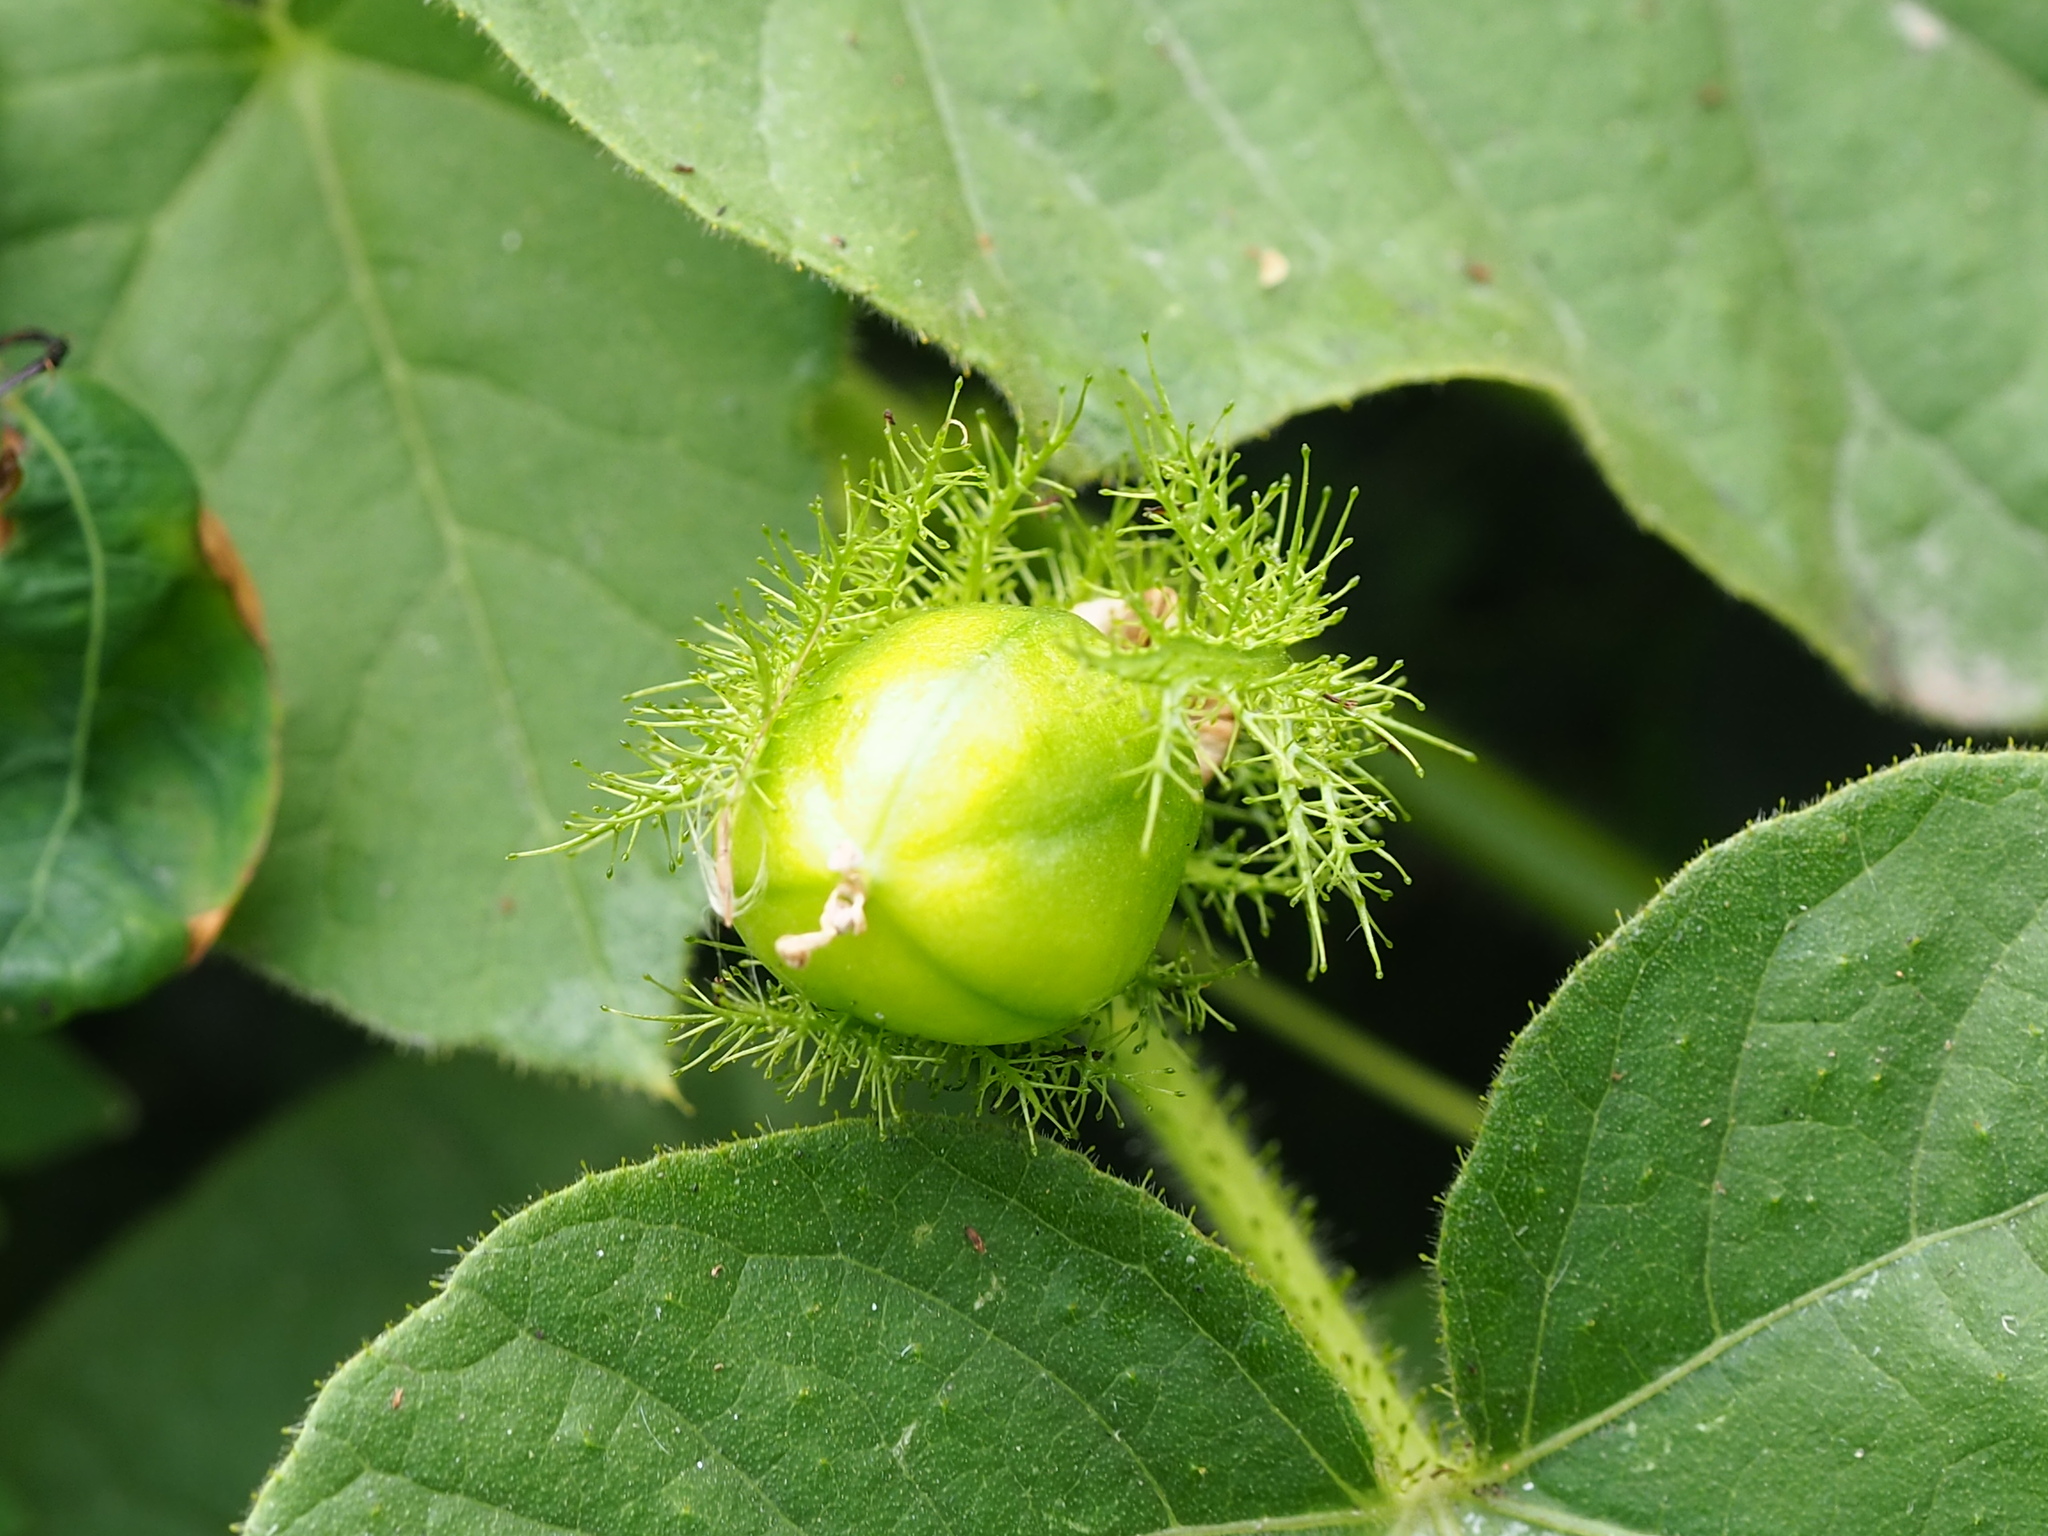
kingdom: Plantae
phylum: Tracheophyta
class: Magnoliopsida
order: Malpighiales
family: Passifloraceae
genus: Passiflora
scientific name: Passiflora vesicaria
